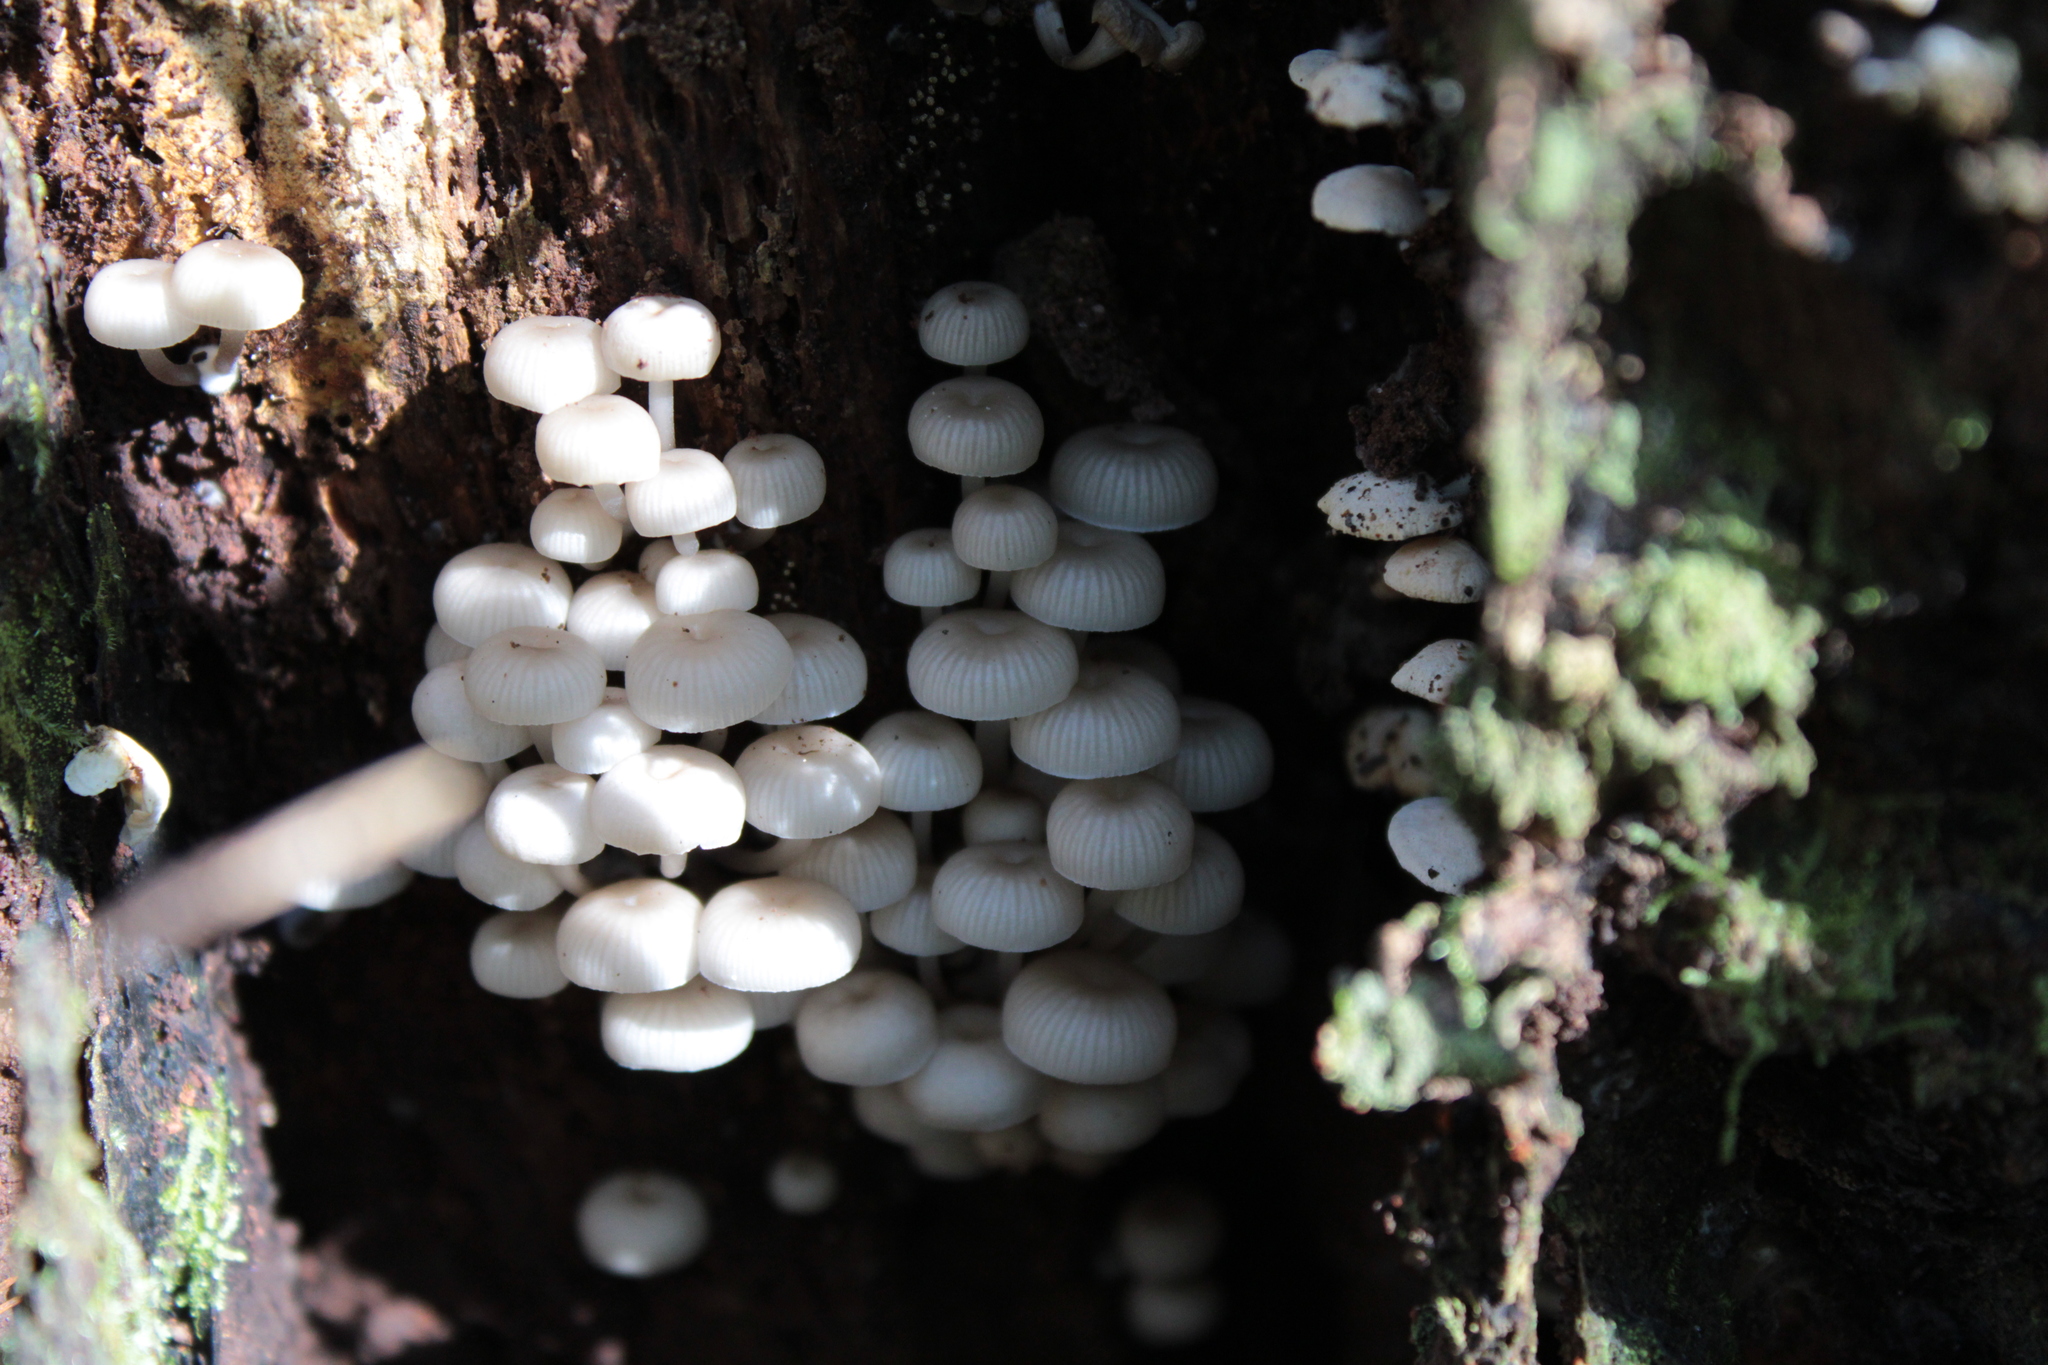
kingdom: Fungi
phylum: Basidiomycota
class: Agaricomycetes
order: Agaricales
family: Psathyrellaceae
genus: Coprinellus
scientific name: Coprinellus disseminatus
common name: Fairies' bonnets
